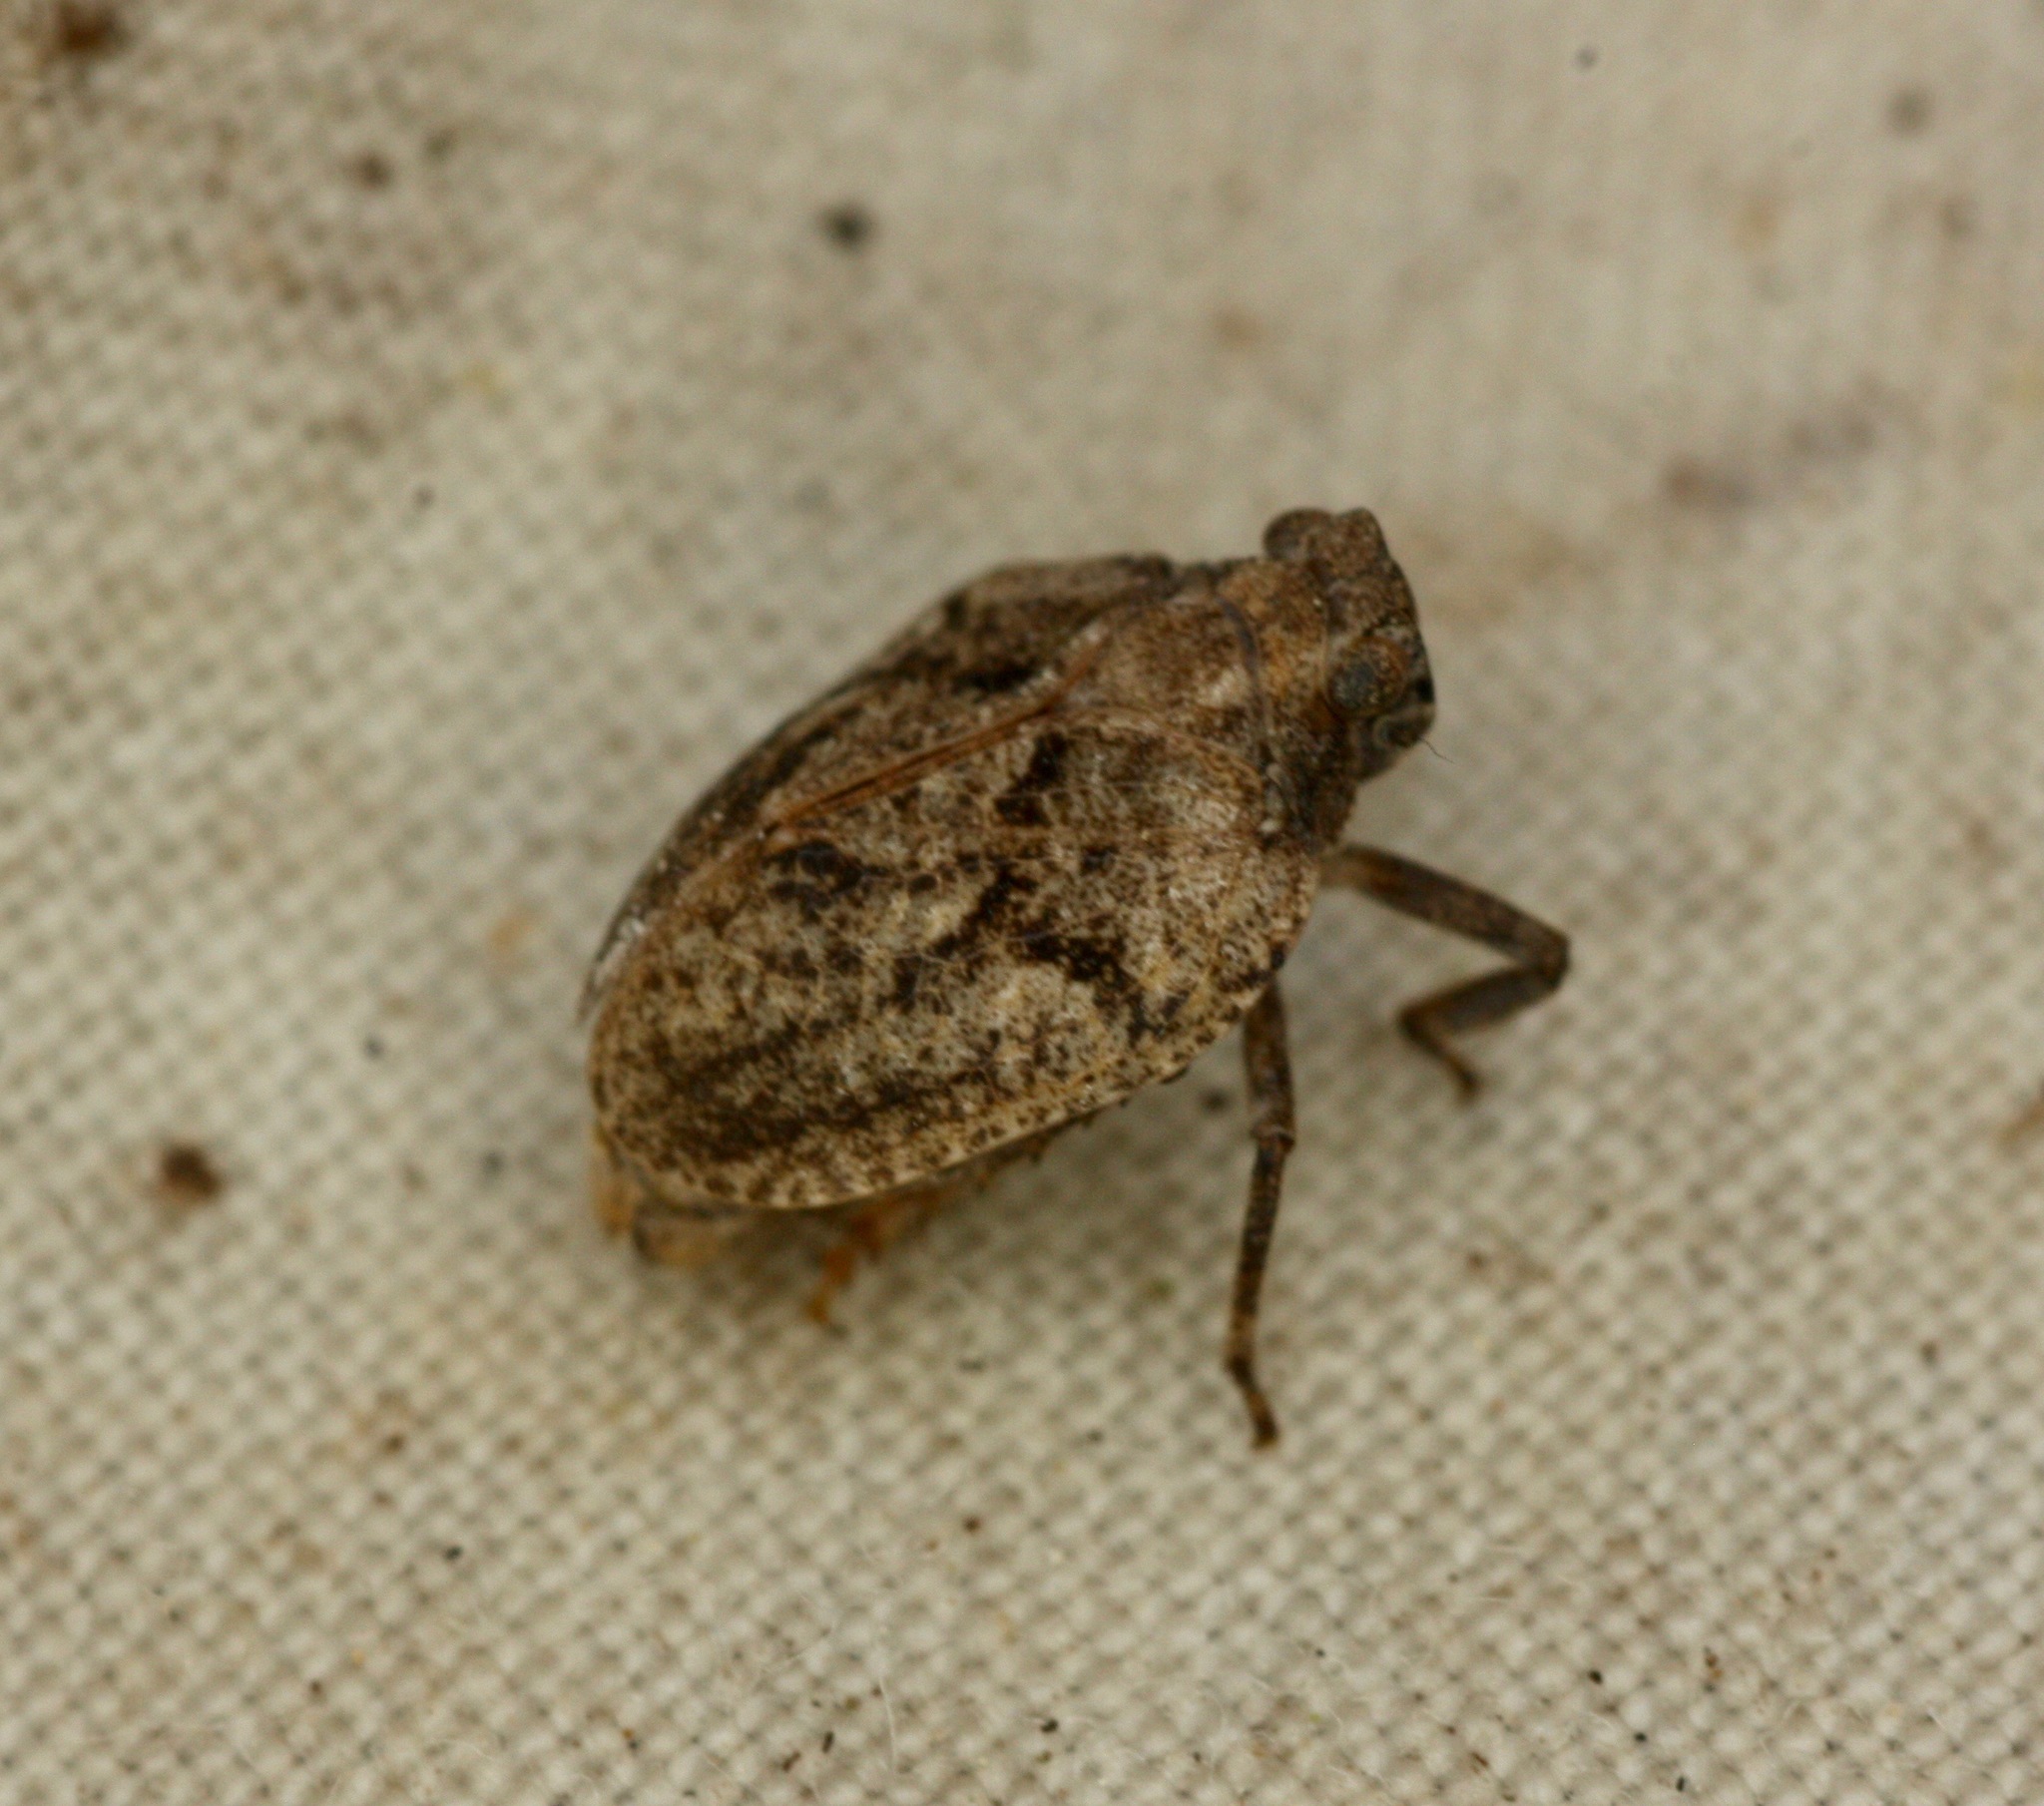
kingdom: Animalia
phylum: Arthropoda
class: Insecta
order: Hemiptera
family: Issidae
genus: Traxus
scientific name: Traxus fulvus
